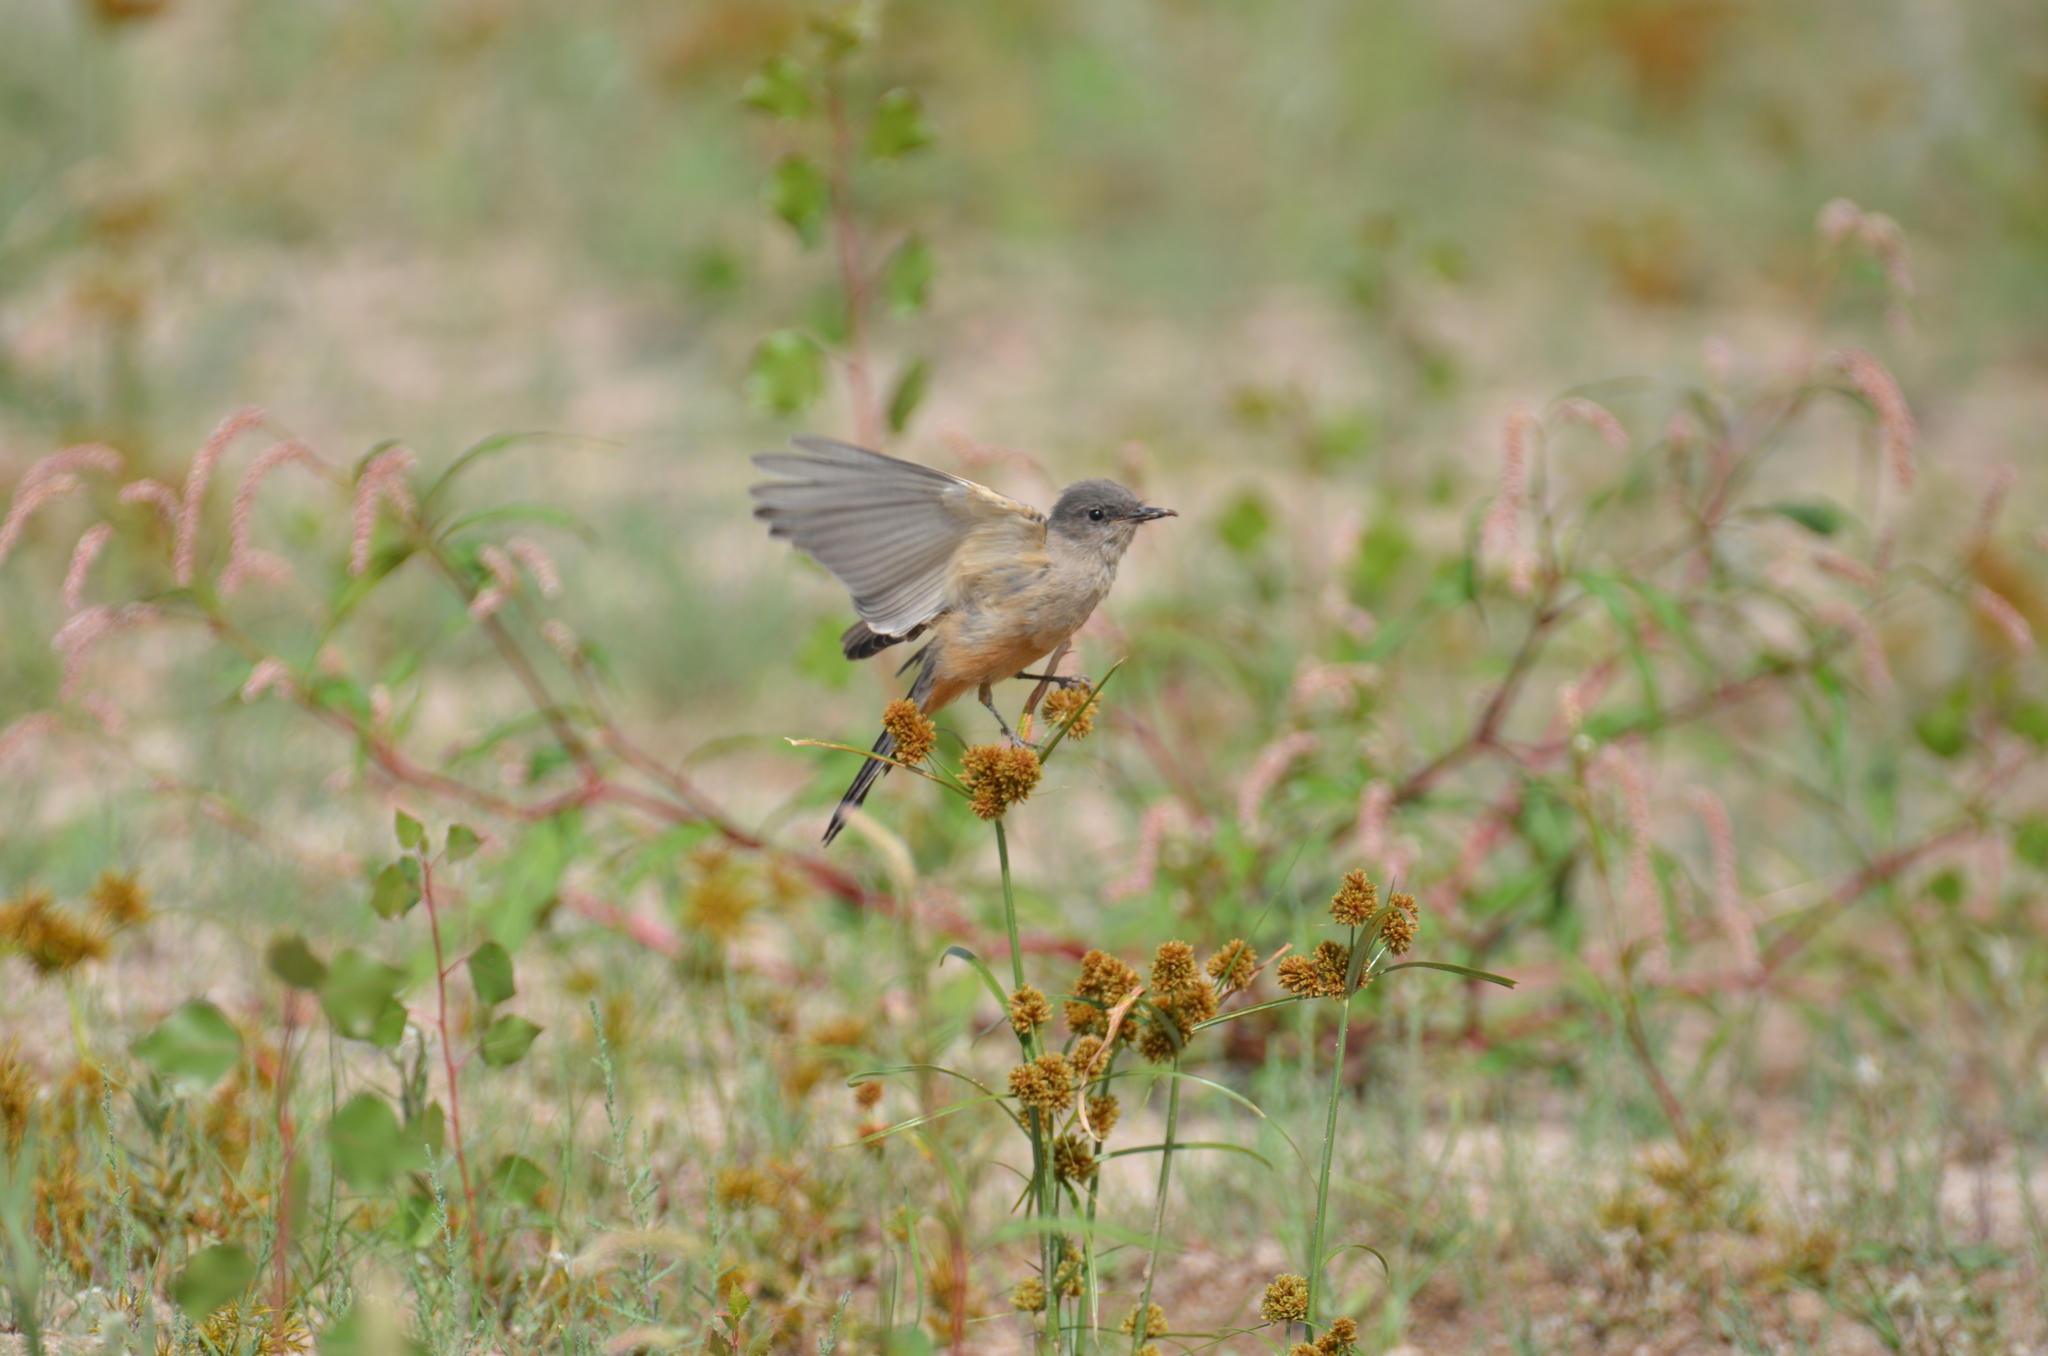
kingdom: Animalia
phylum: Chordata
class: Aves
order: Passeriformes
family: Tyrannidae
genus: Sayornis
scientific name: Sayornis saya
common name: Say's phoebe
